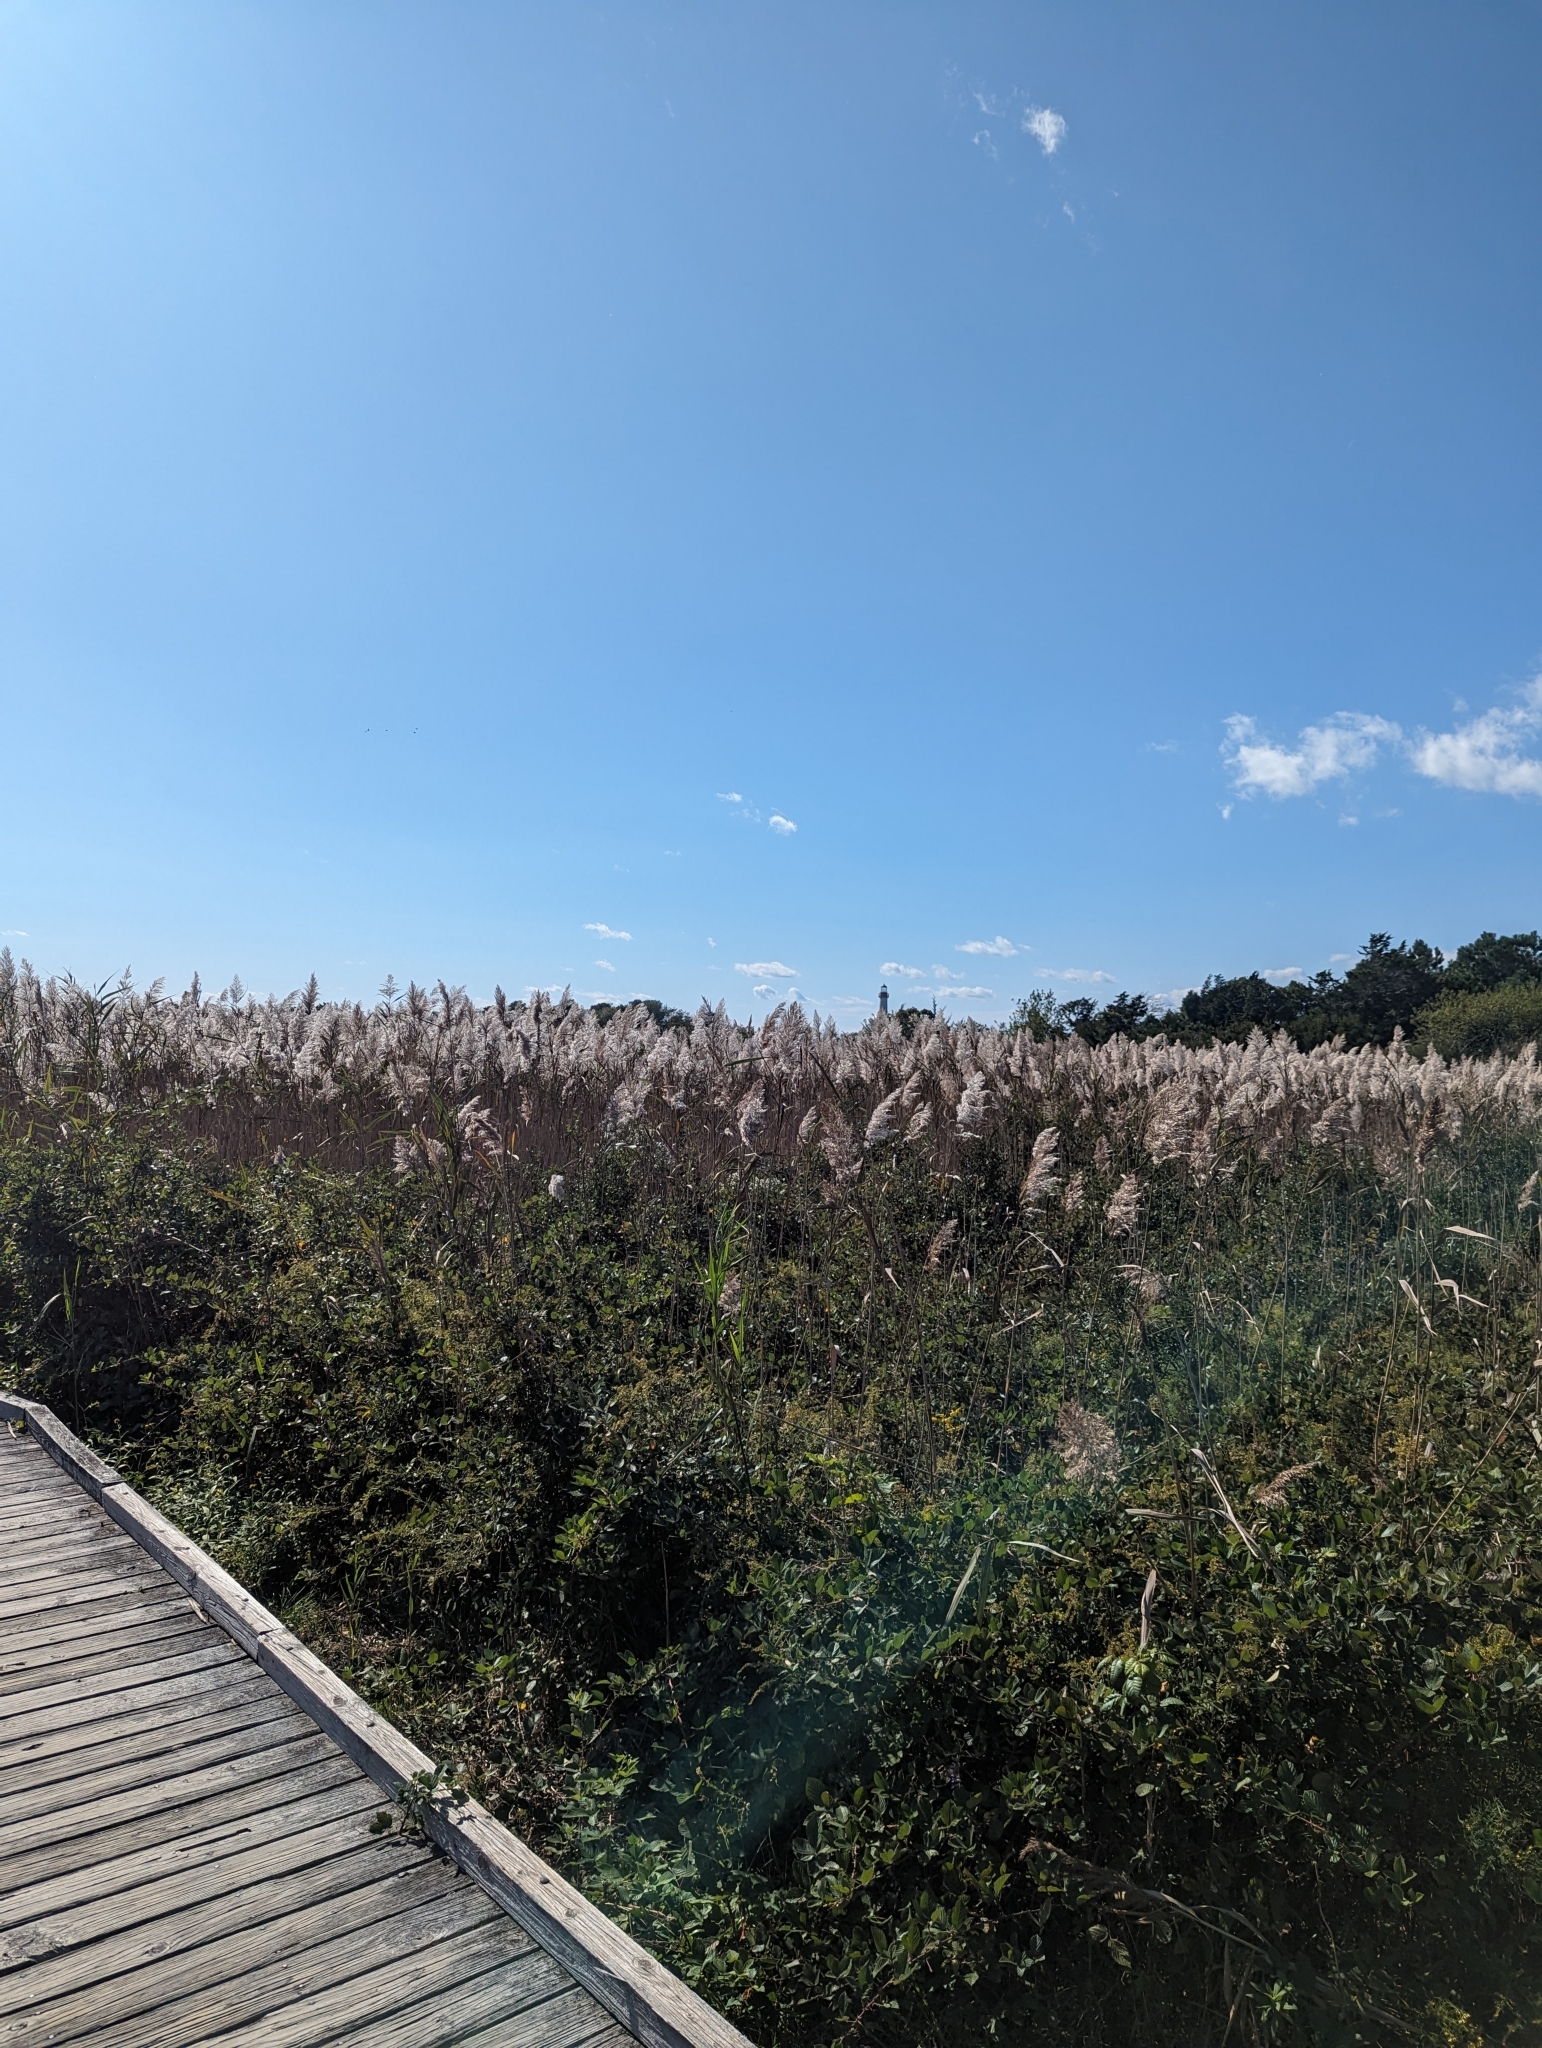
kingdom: Plantae
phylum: Tracheophyta
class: Liliopsida
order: Poales
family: Poaceae
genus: Phragmites
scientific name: Phragmites australis
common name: Common reed
